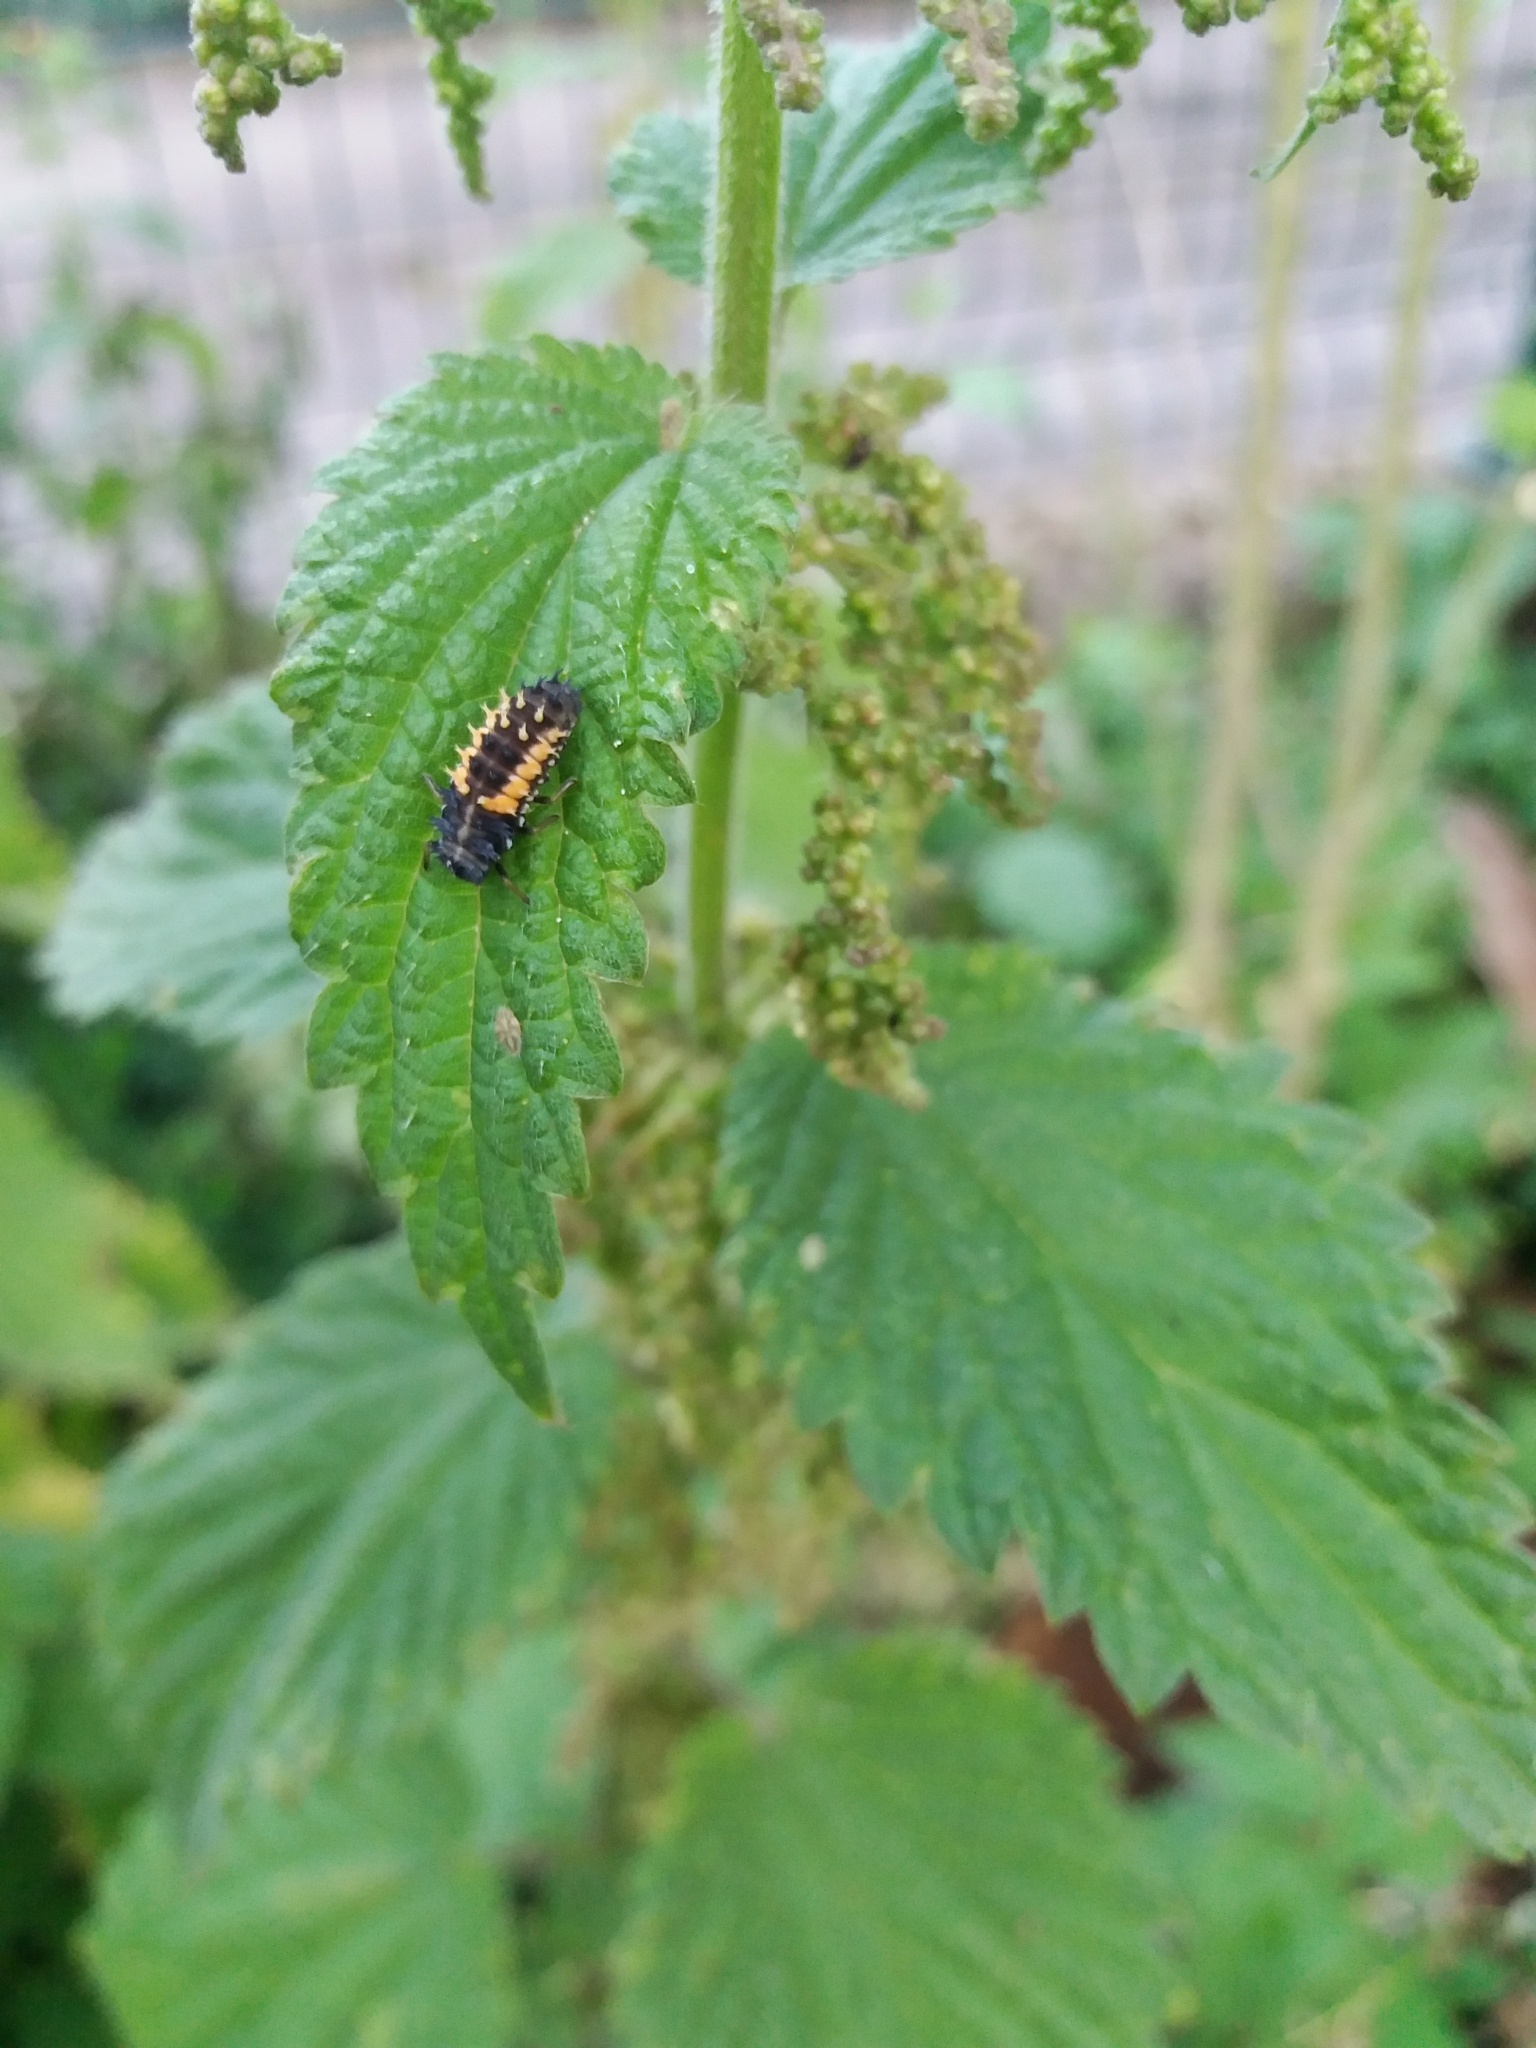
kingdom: Animalia
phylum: Arthropoda
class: Insecta
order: Coleoptera
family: Coccinellidae
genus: Harmonia
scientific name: Harmonia axyridis
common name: Harlequin ladybird
